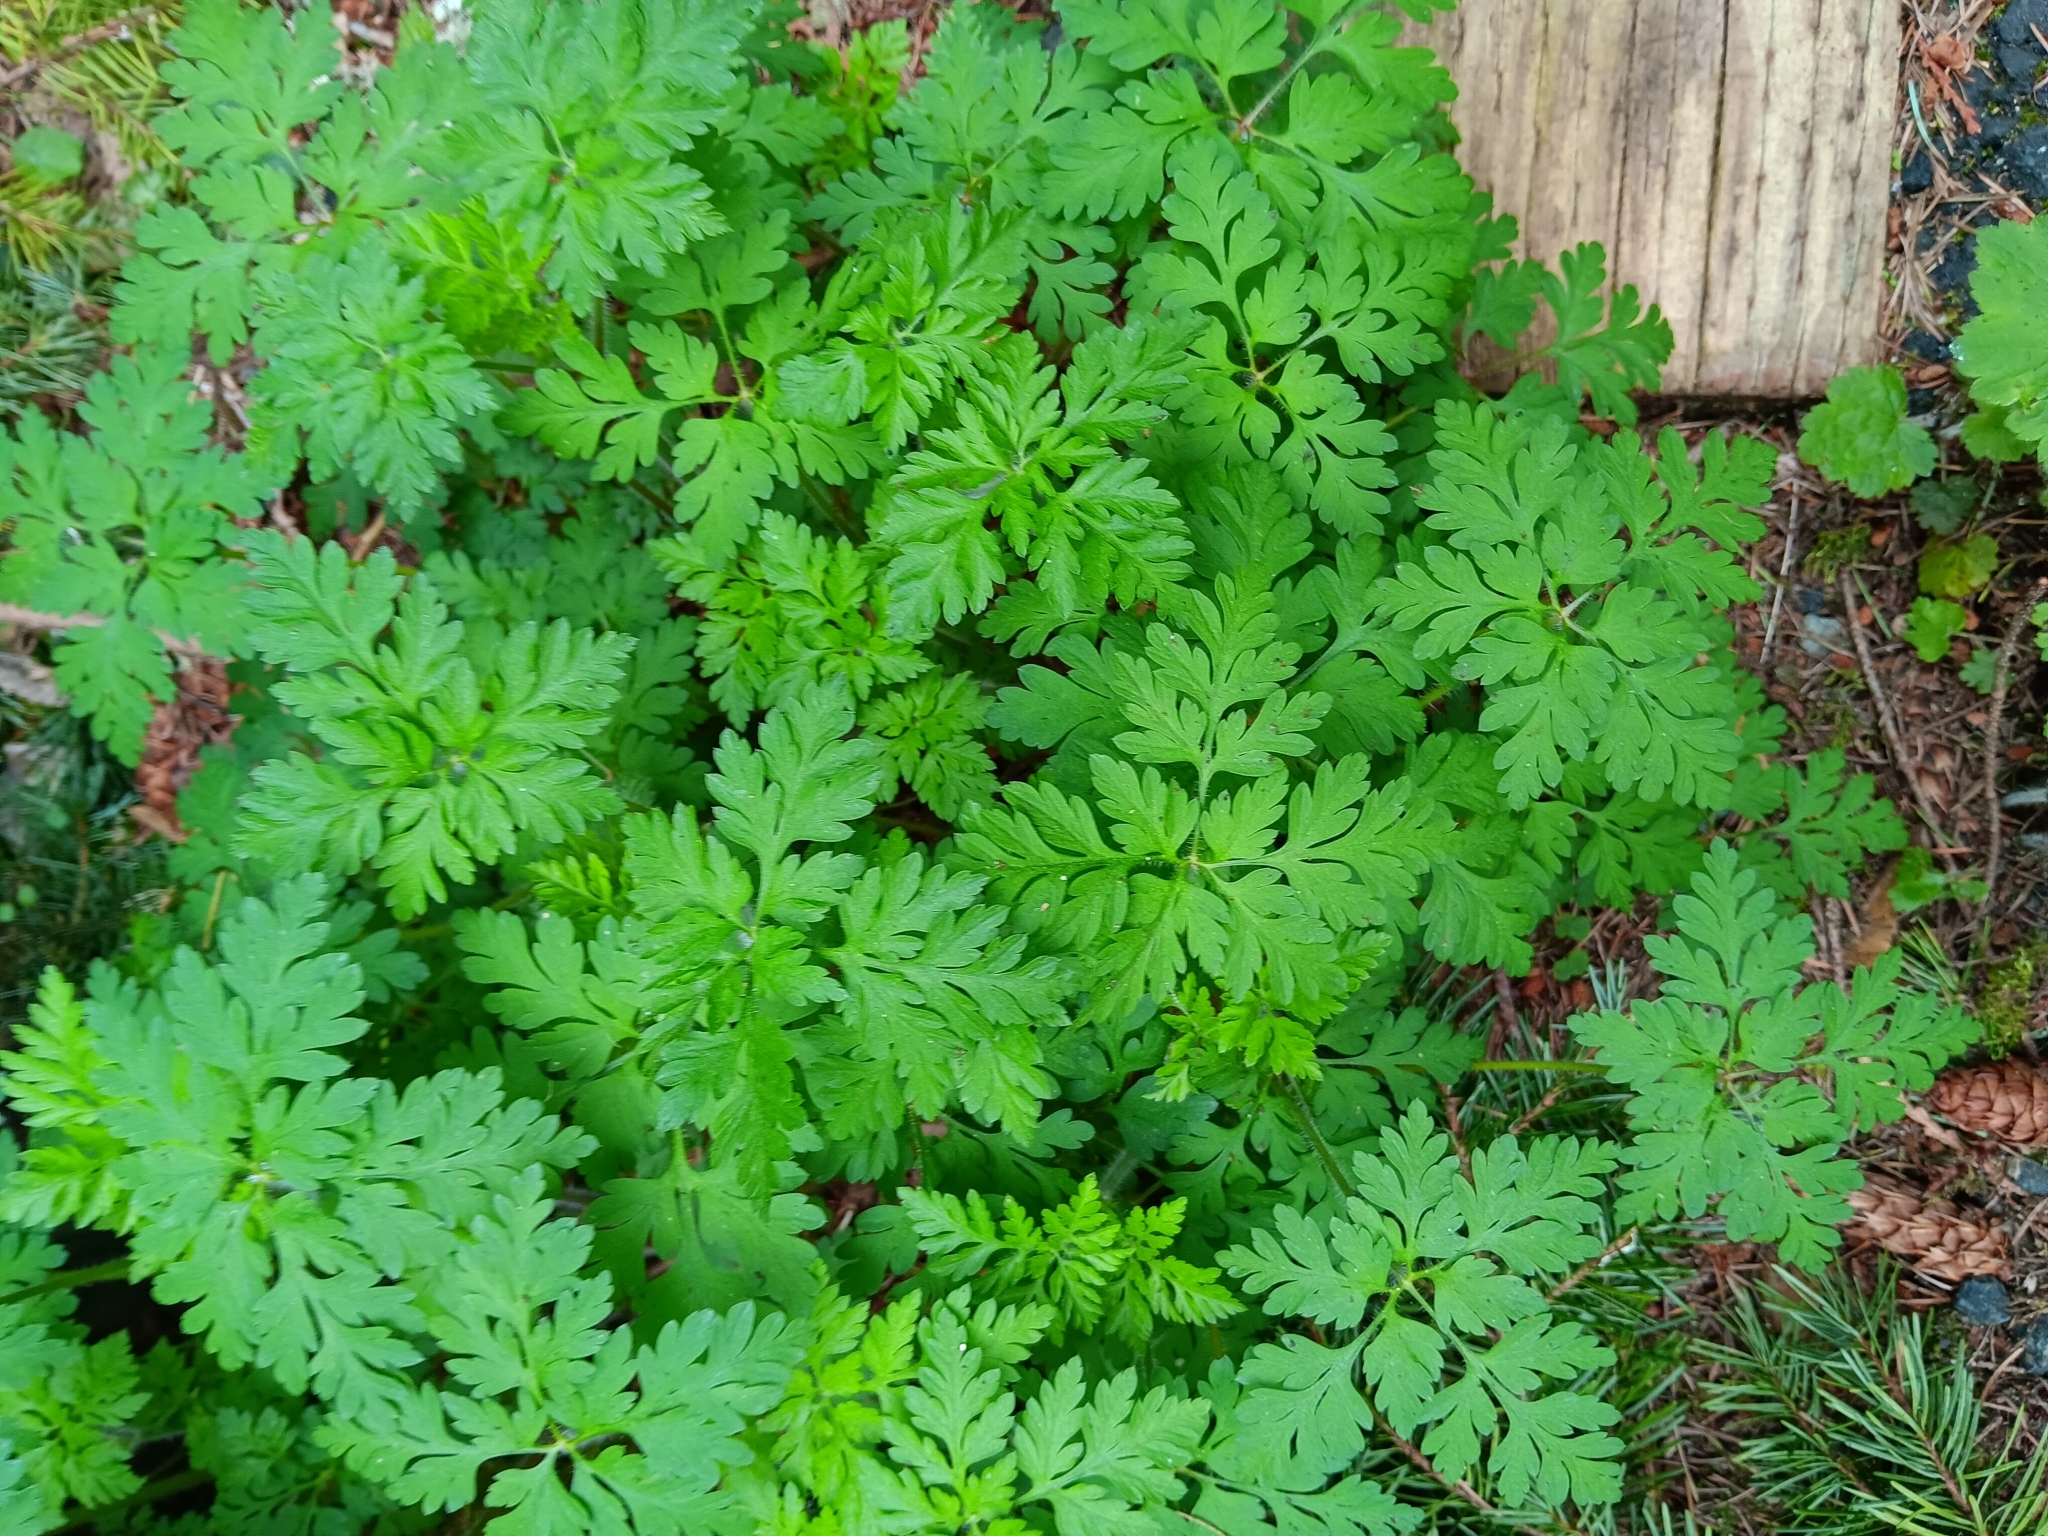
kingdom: Plantae
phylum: Tracheophyta
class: Magnoliopsida
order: Geraniales
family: Geraniaceae
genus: Geranium
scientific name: Geranium robertianum
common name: Herb-robert
